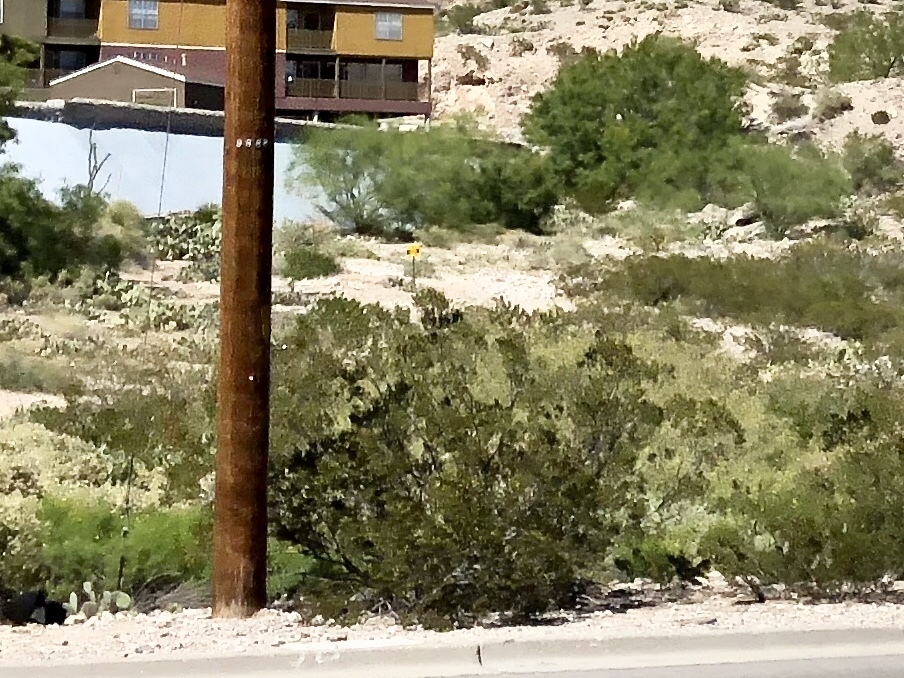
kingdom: Plantae
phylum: Tracheophyta
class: Magnoliopsida
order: Zygophyllales
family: Zygophyllaceae
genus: Larrea
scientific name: Larrea tridentata
